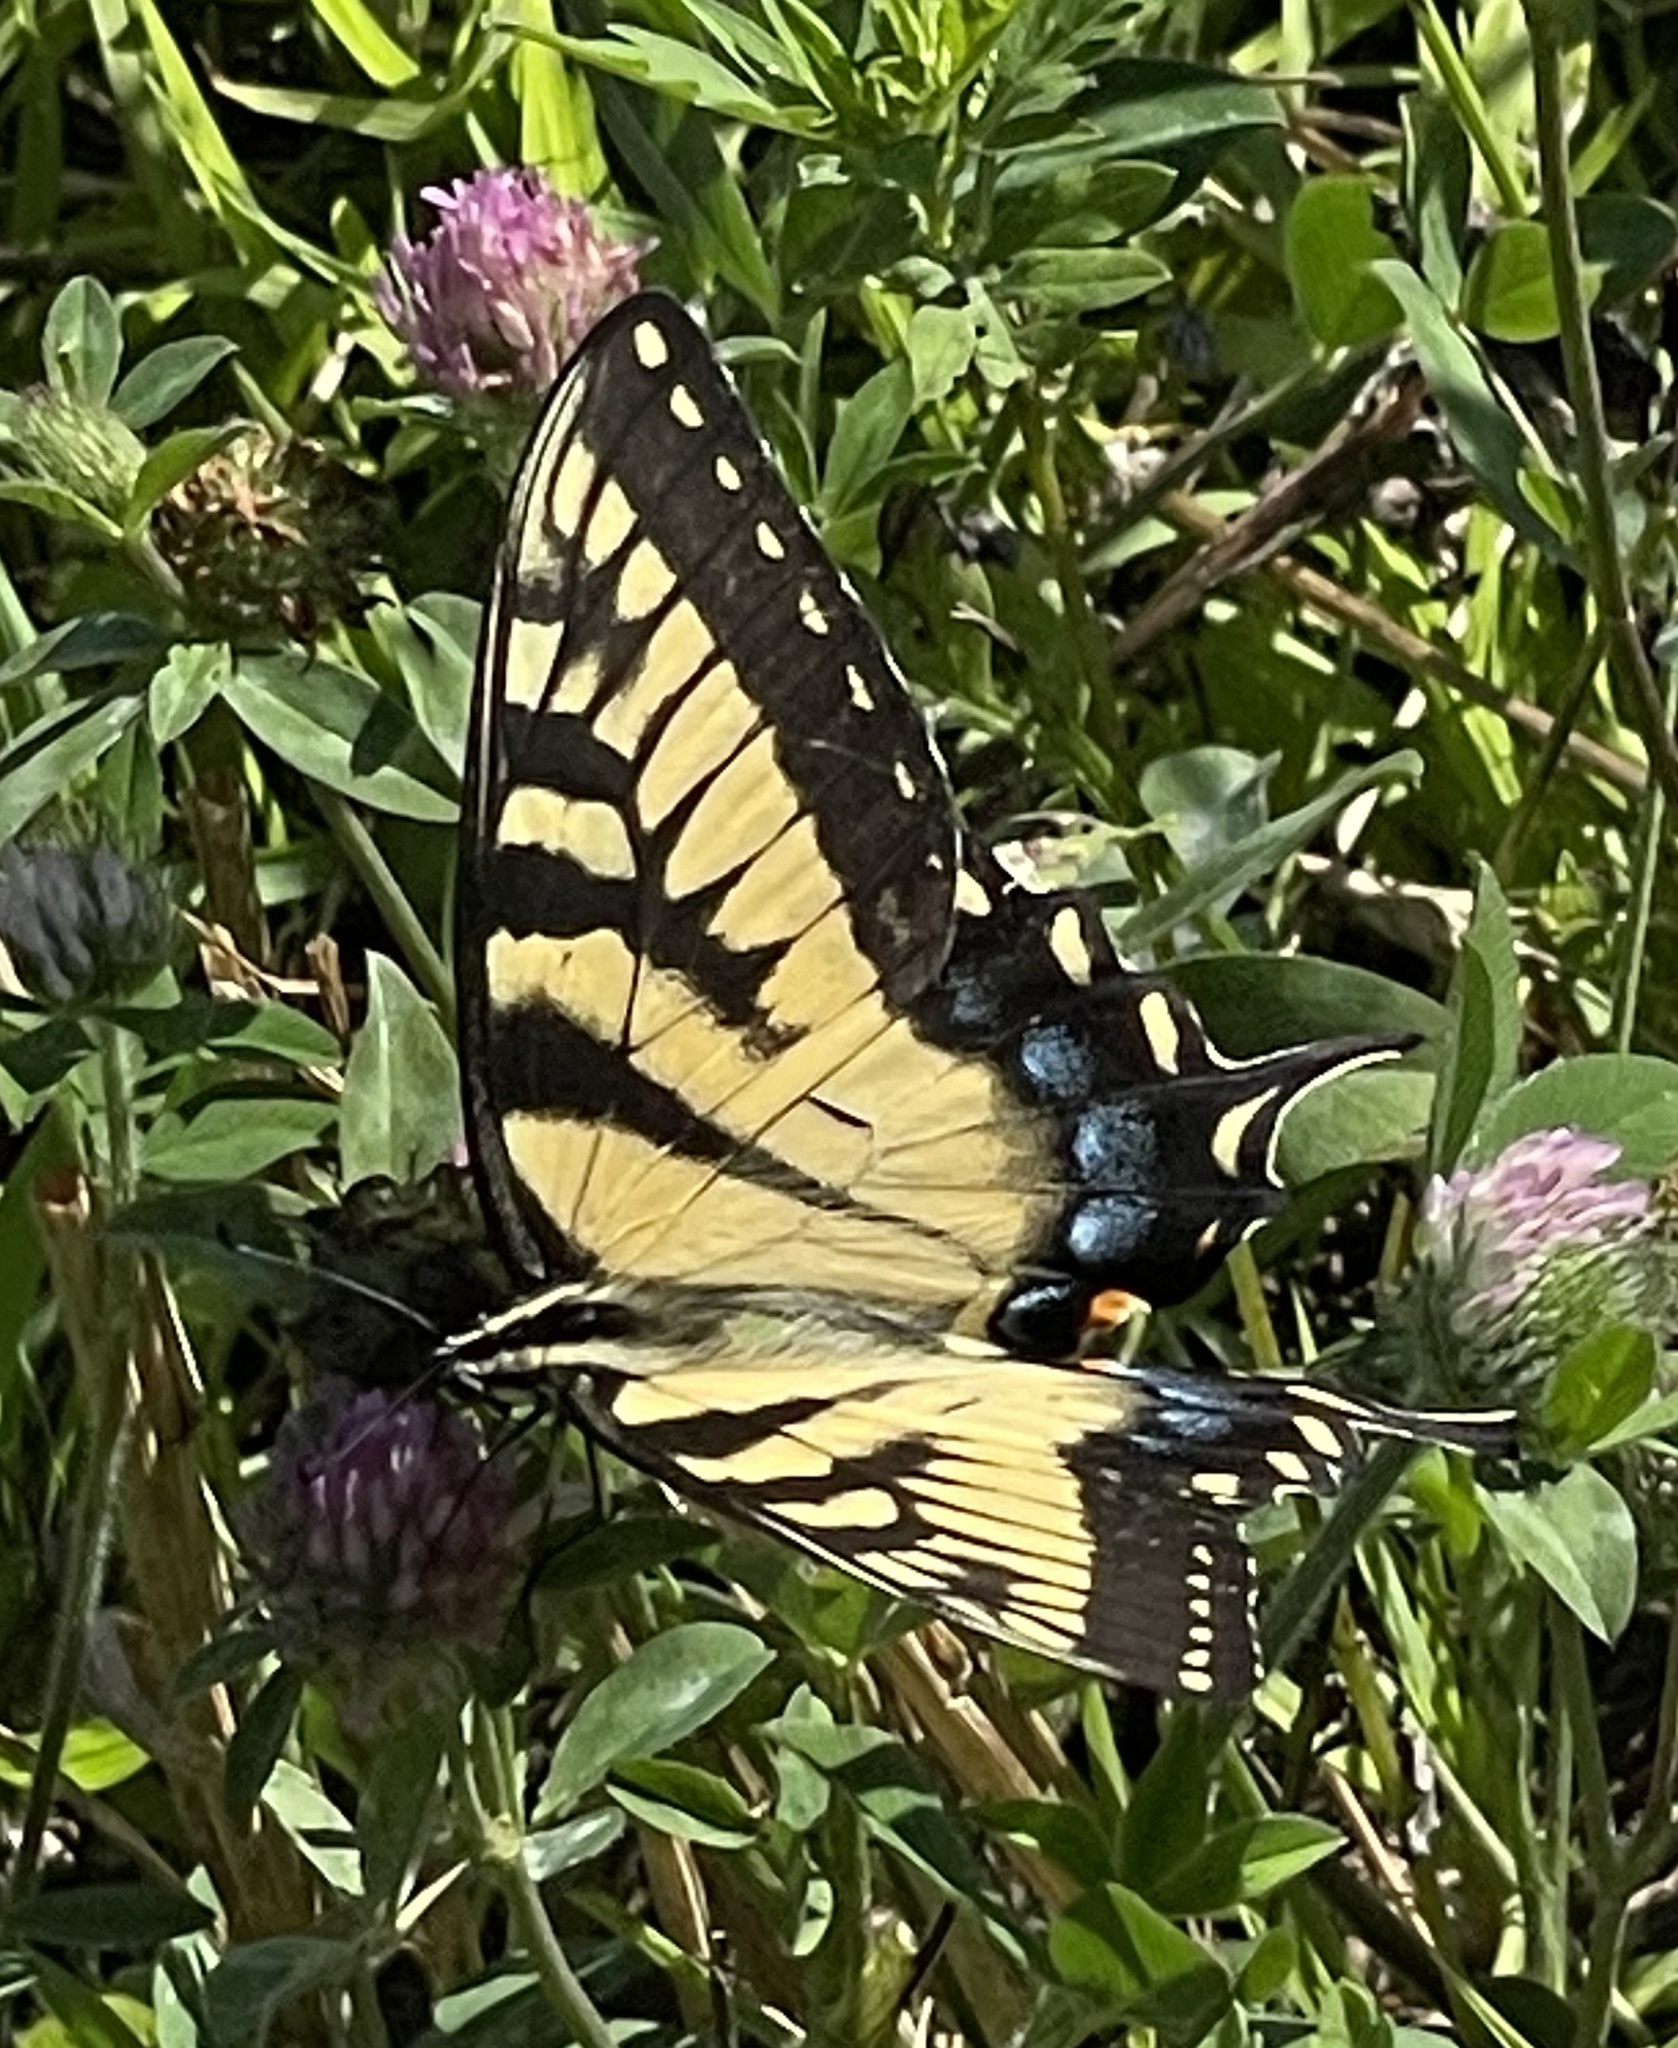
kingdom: Animalia
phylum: Arthropoda
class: Insecta
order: Lepidoptera
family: Papilionidae
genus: Papilio
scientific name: Papilio glaucus
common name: Tiger swallowtail
